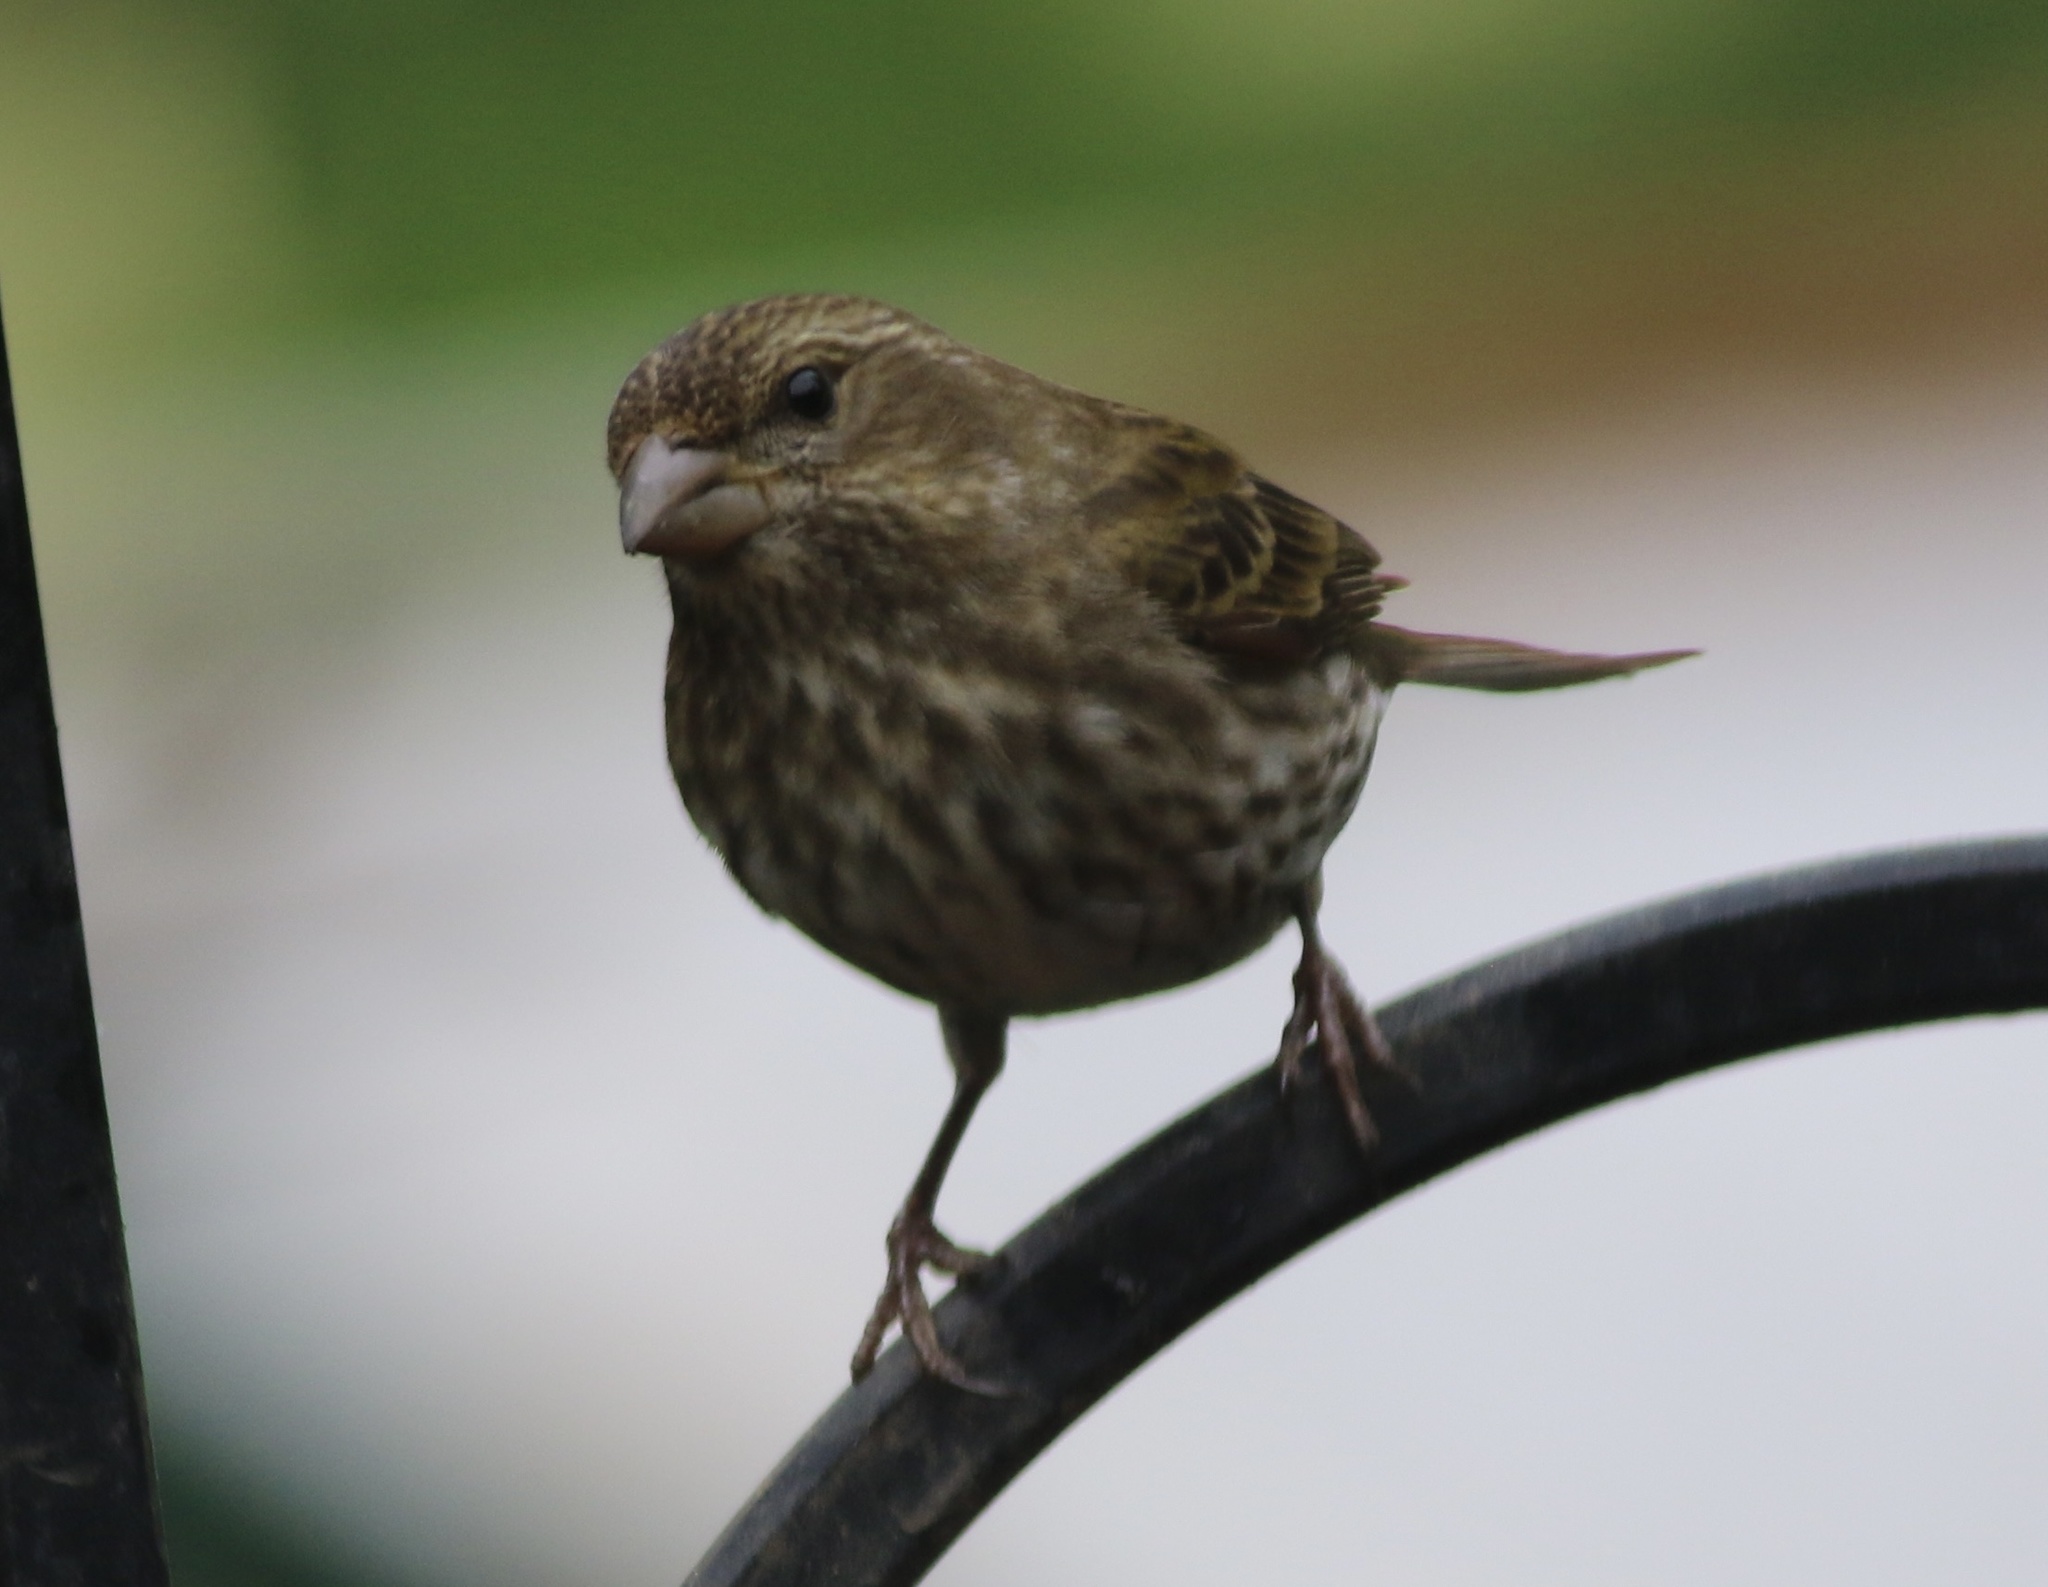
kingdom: Animalia
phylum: Chordata
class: Aves
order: Passeriformes
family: Fringillidae
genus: Haemorhous
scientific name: Haemorhous purpureus
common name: Purple finch
